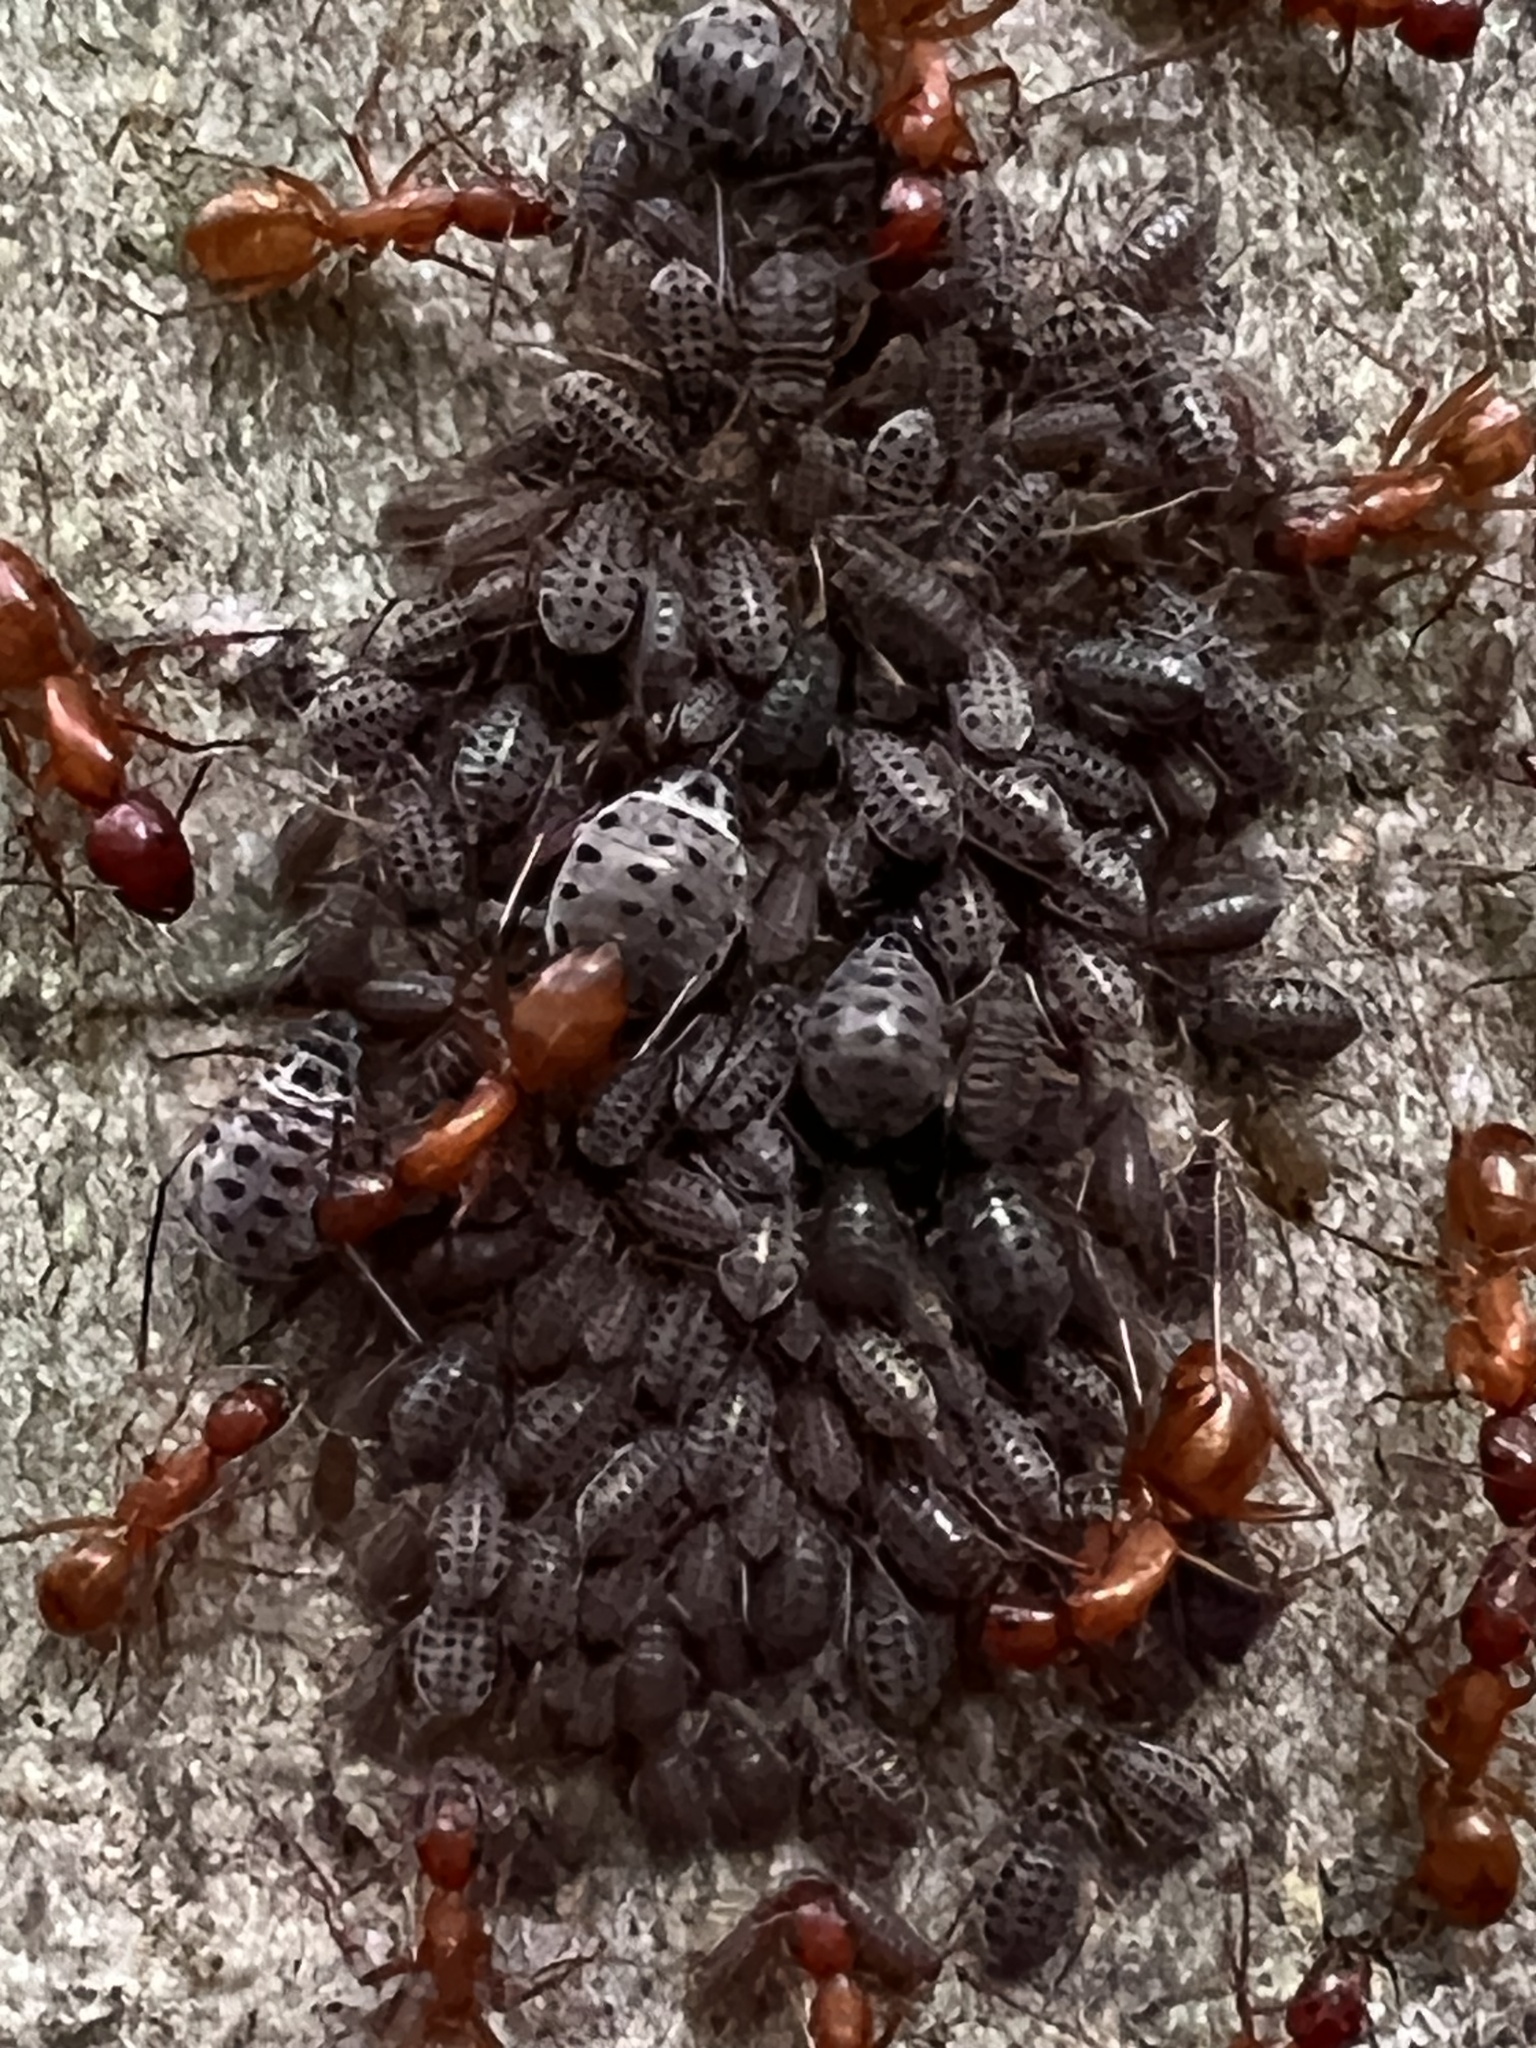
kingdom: Animalia
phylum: Arthropoda
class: Insecta
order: Hymenoptera
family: Formicidae
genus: Camponotus
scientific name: Camponotus castaneus
